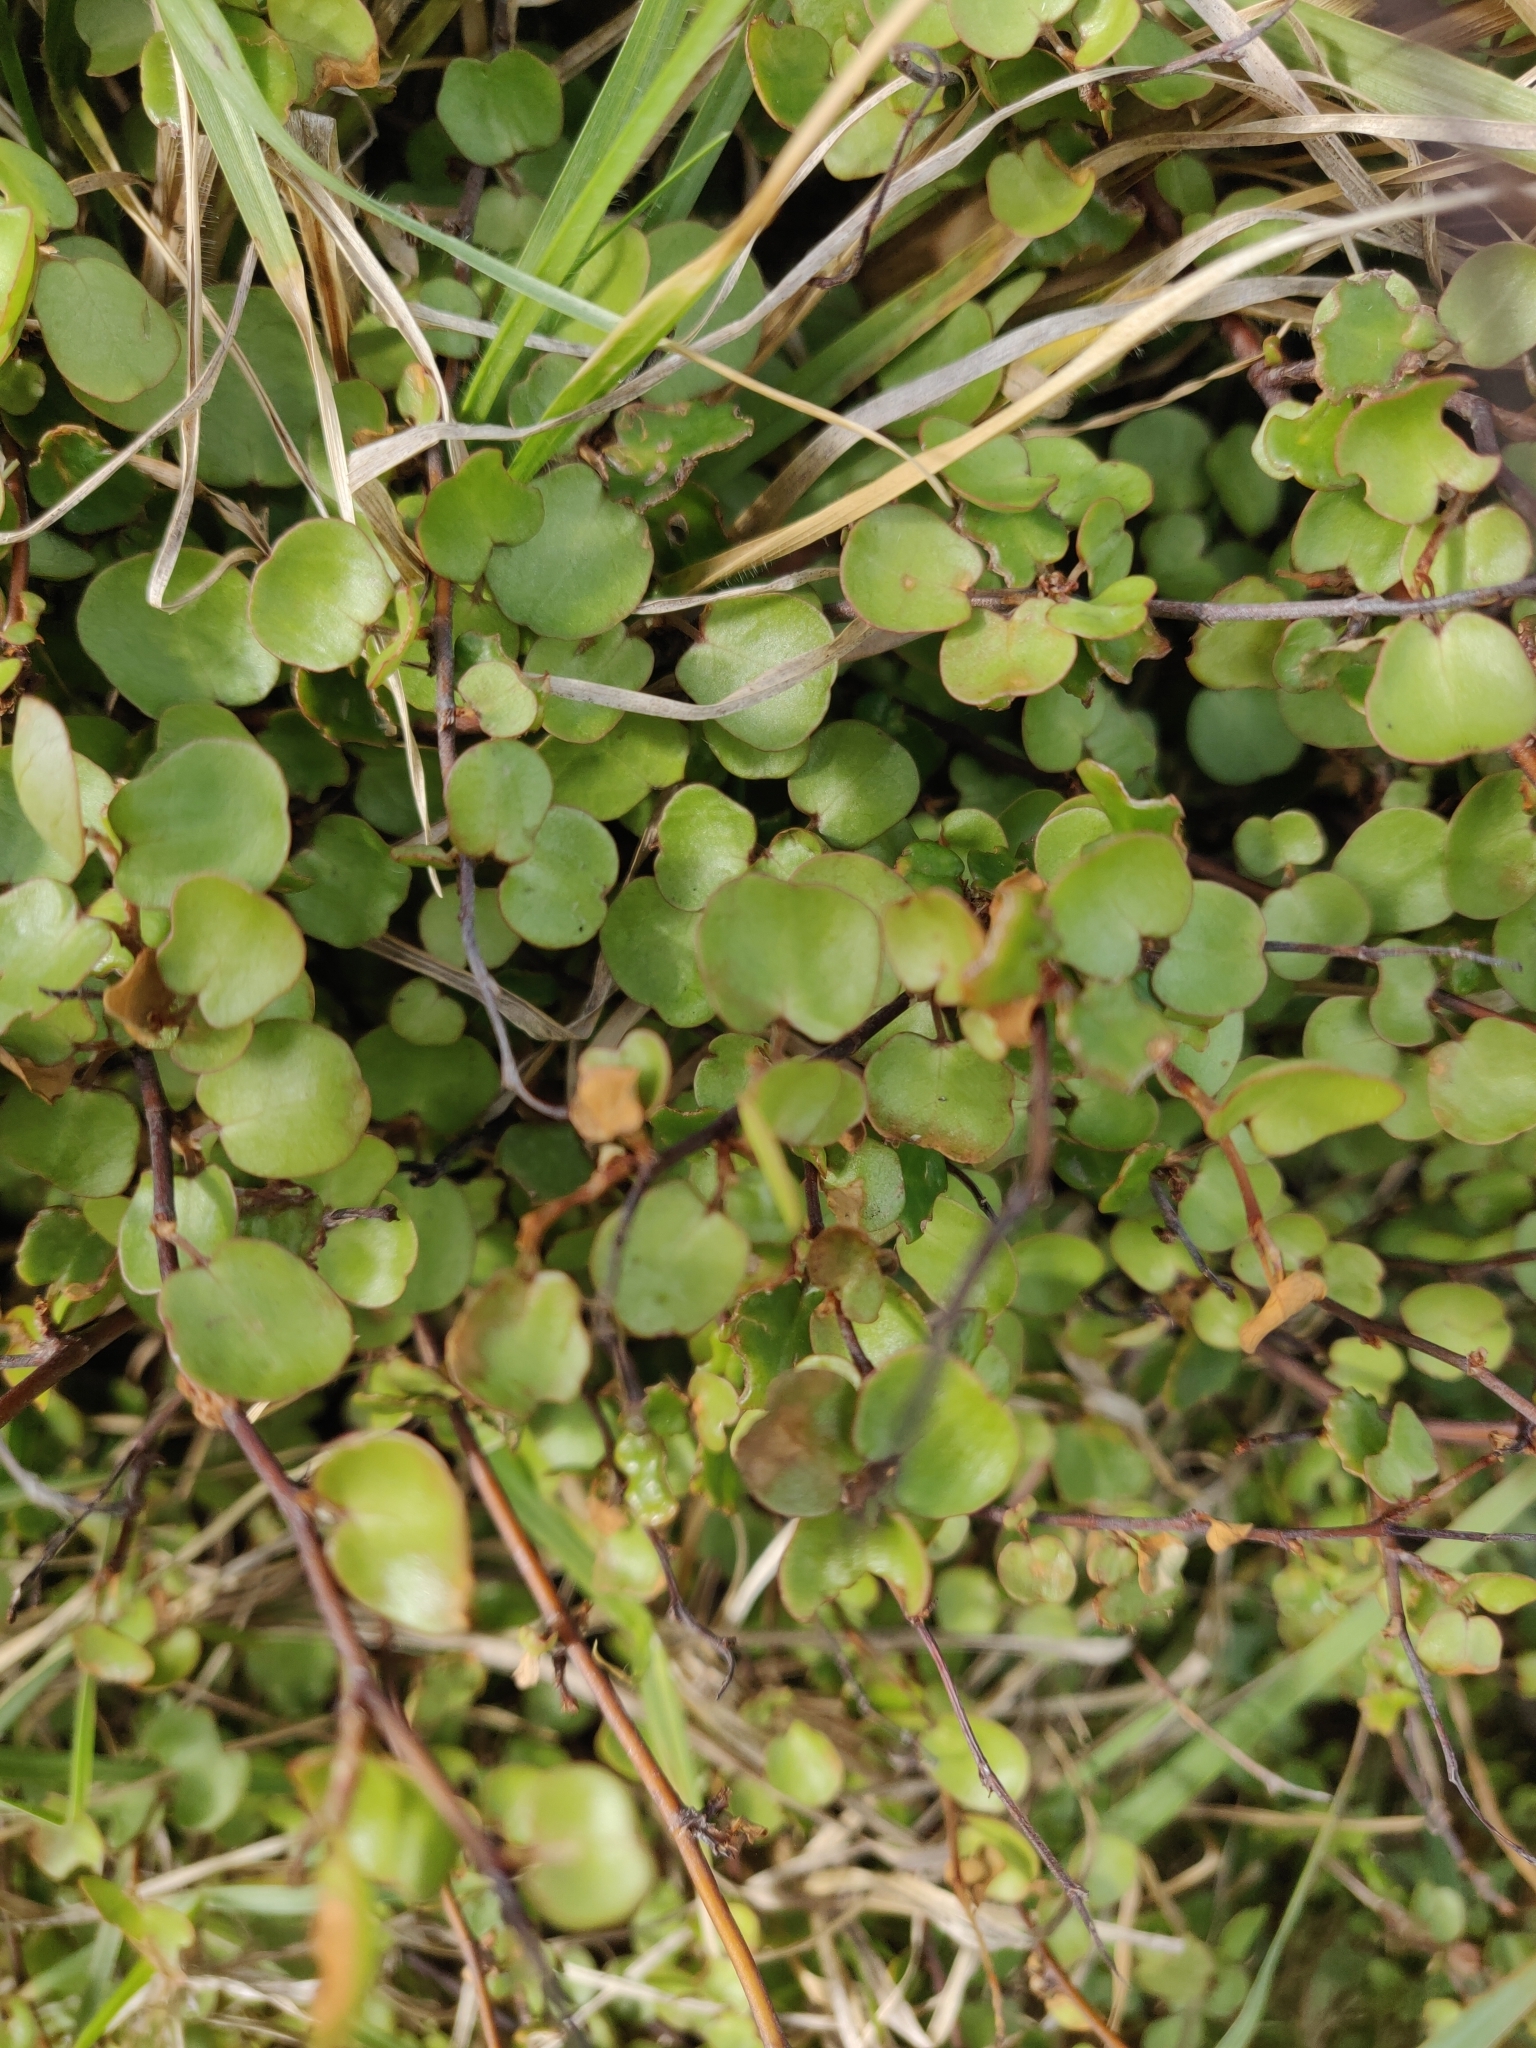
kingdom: Plantae
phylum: Tracheophyta
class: Magnoliopsida
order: Caryophyllales
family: Polygonaceae
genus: Muehlenbeckia
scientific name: Muehlenbeckia complexa
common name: Wireplant
